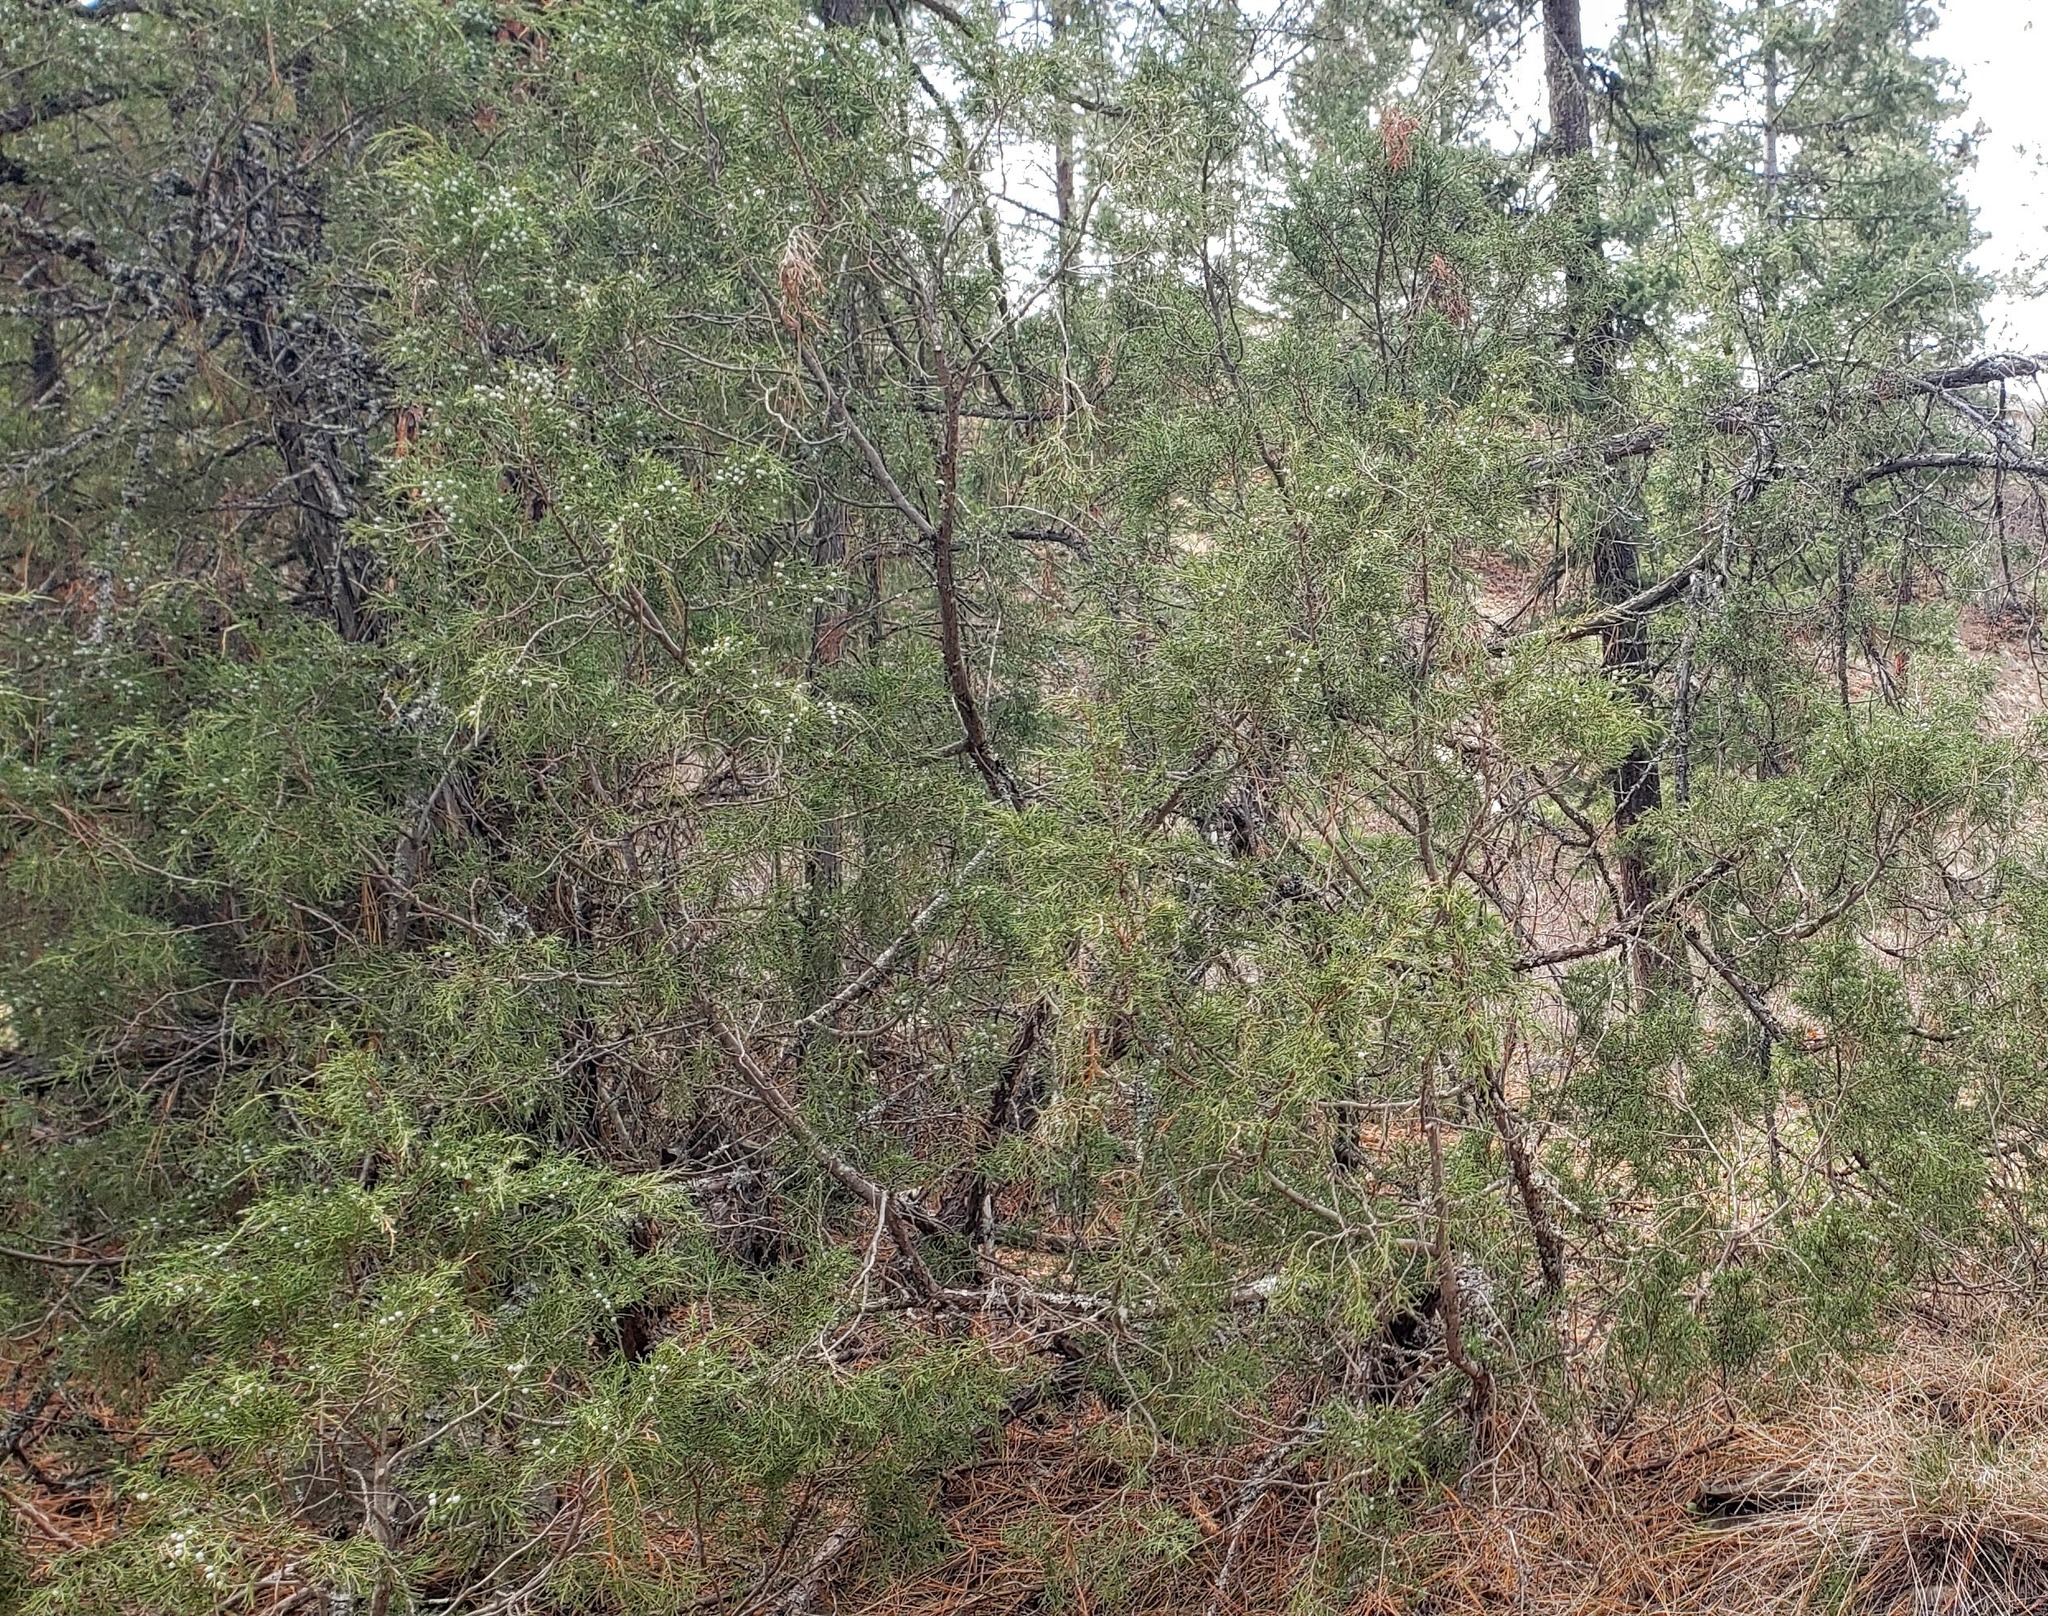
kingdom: Plantae
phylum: Tracheophyta
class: Pinopsida
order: Pinales
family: Cupressaceae
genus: Juniperus
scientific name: Juniperus scopulorum
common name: Rocky mountain juniper
